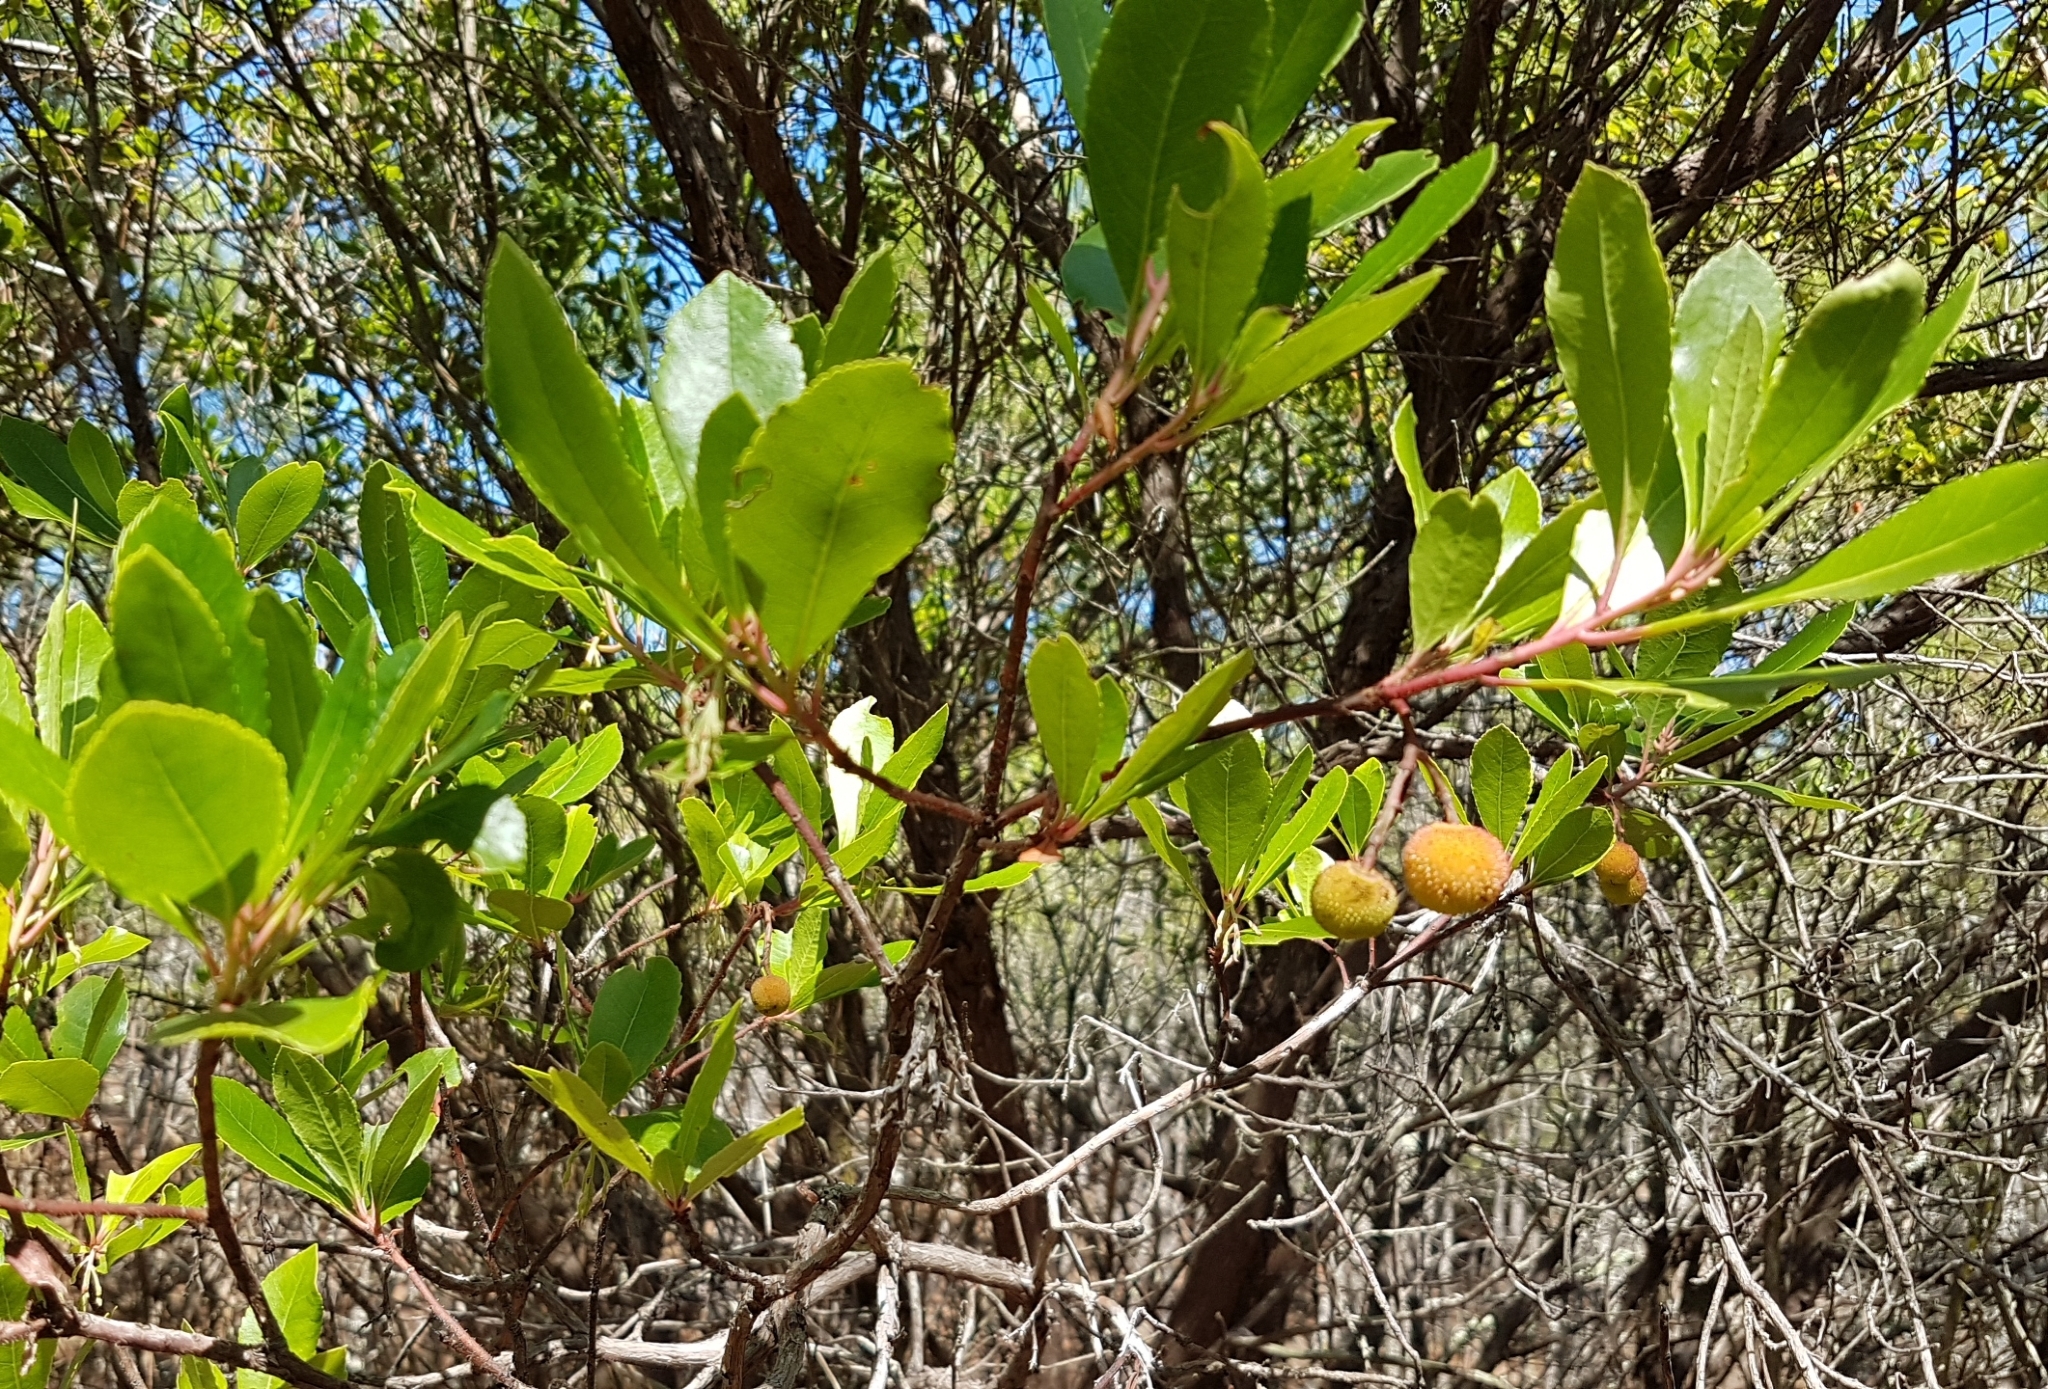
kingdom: Plantae
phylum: Tracheophyta
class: Magnoliopsida
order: Ericales
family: Ericaceae
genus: Arbutus
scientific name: Arbutus unedo
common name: Strawberry-tree
